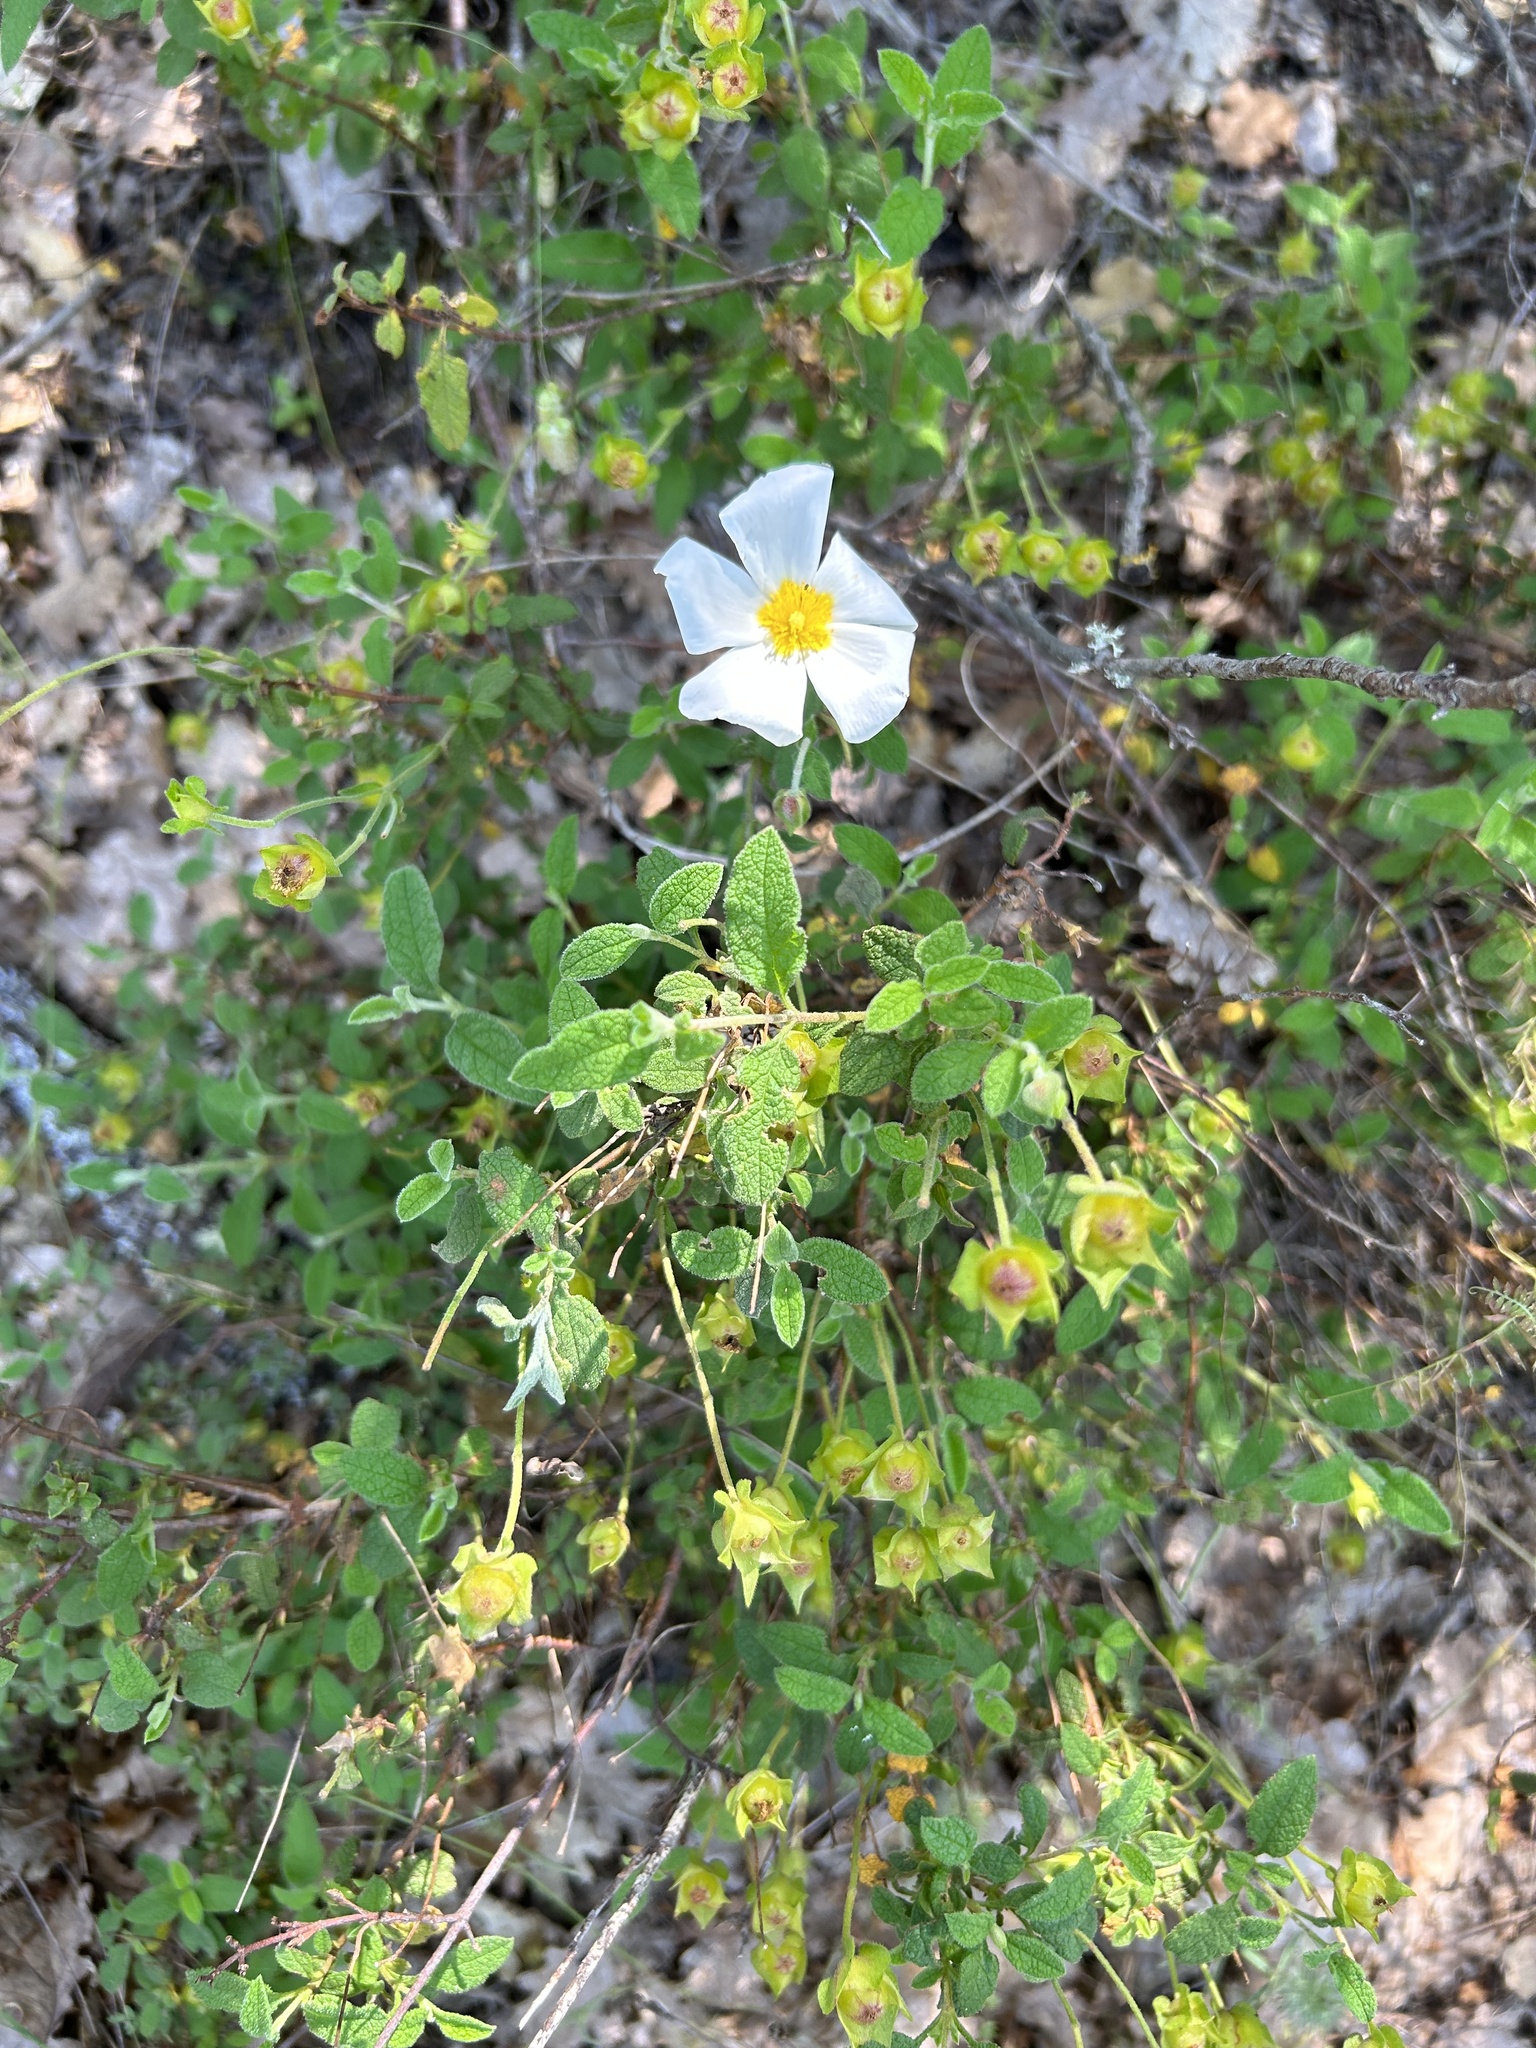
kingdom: Plantae
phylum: Tracheophyta
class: Magnoliopsida
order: Malvales
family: Cistaceae
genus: Cistus
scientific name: Cistus salviifolius
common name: Salvia cistus
